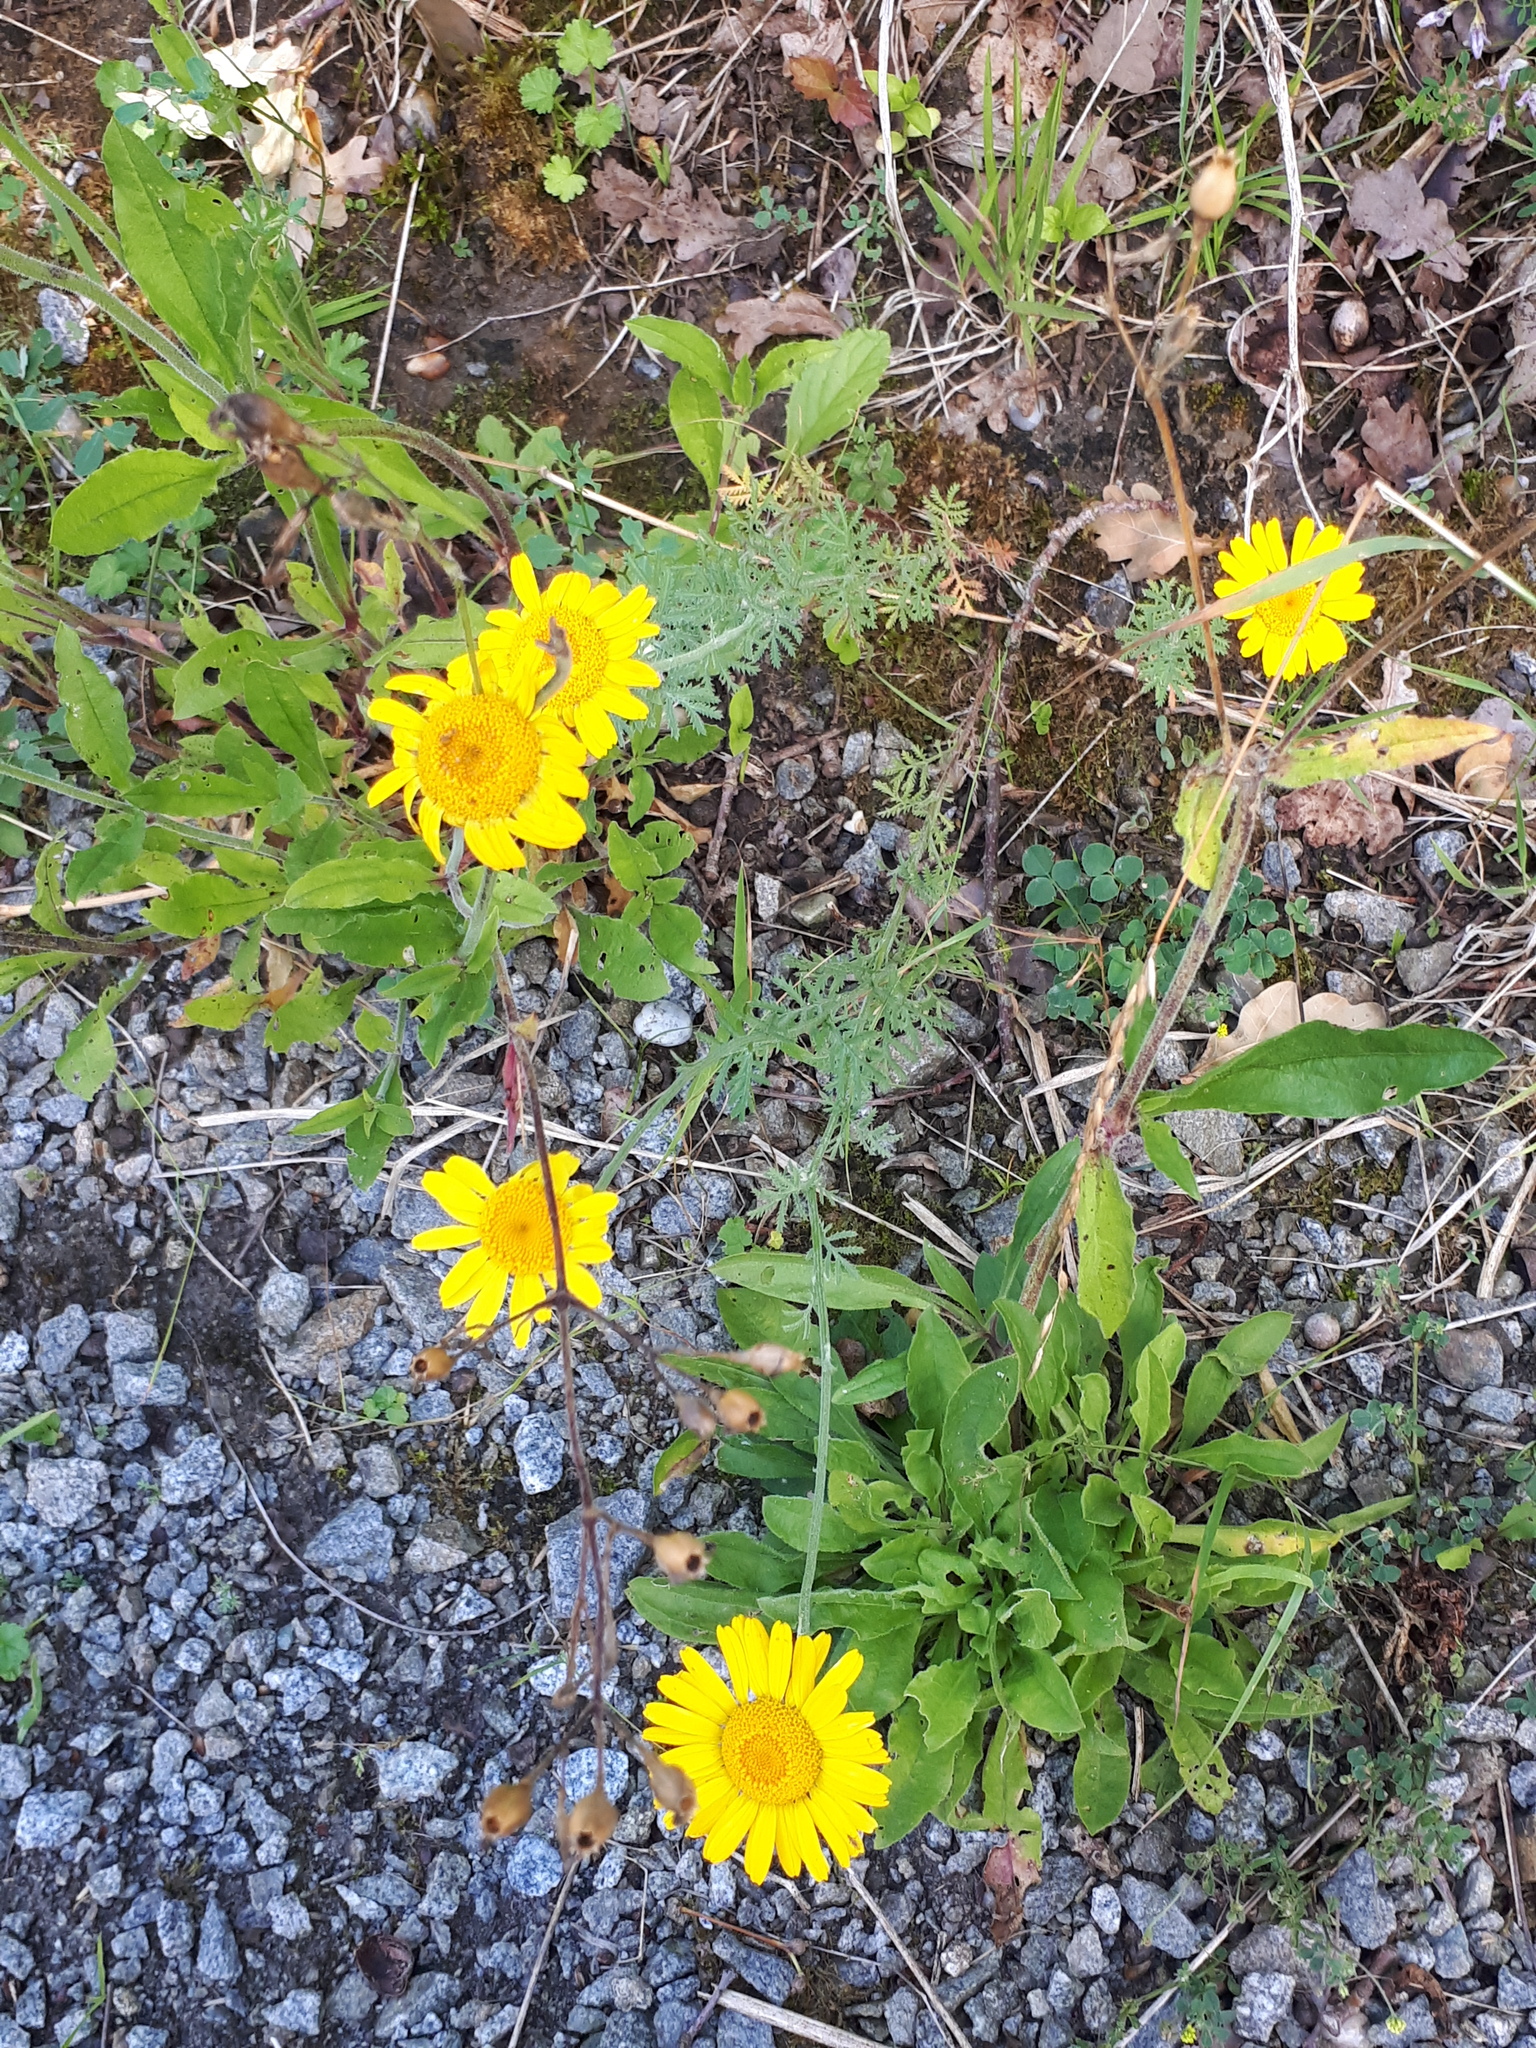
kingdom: Plantae
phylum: Tracheophyta
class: Magnoliopsida
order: Asterales
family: Asteraceae
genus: Cota
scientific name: Cota tinctoria
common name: Golden chamomile
